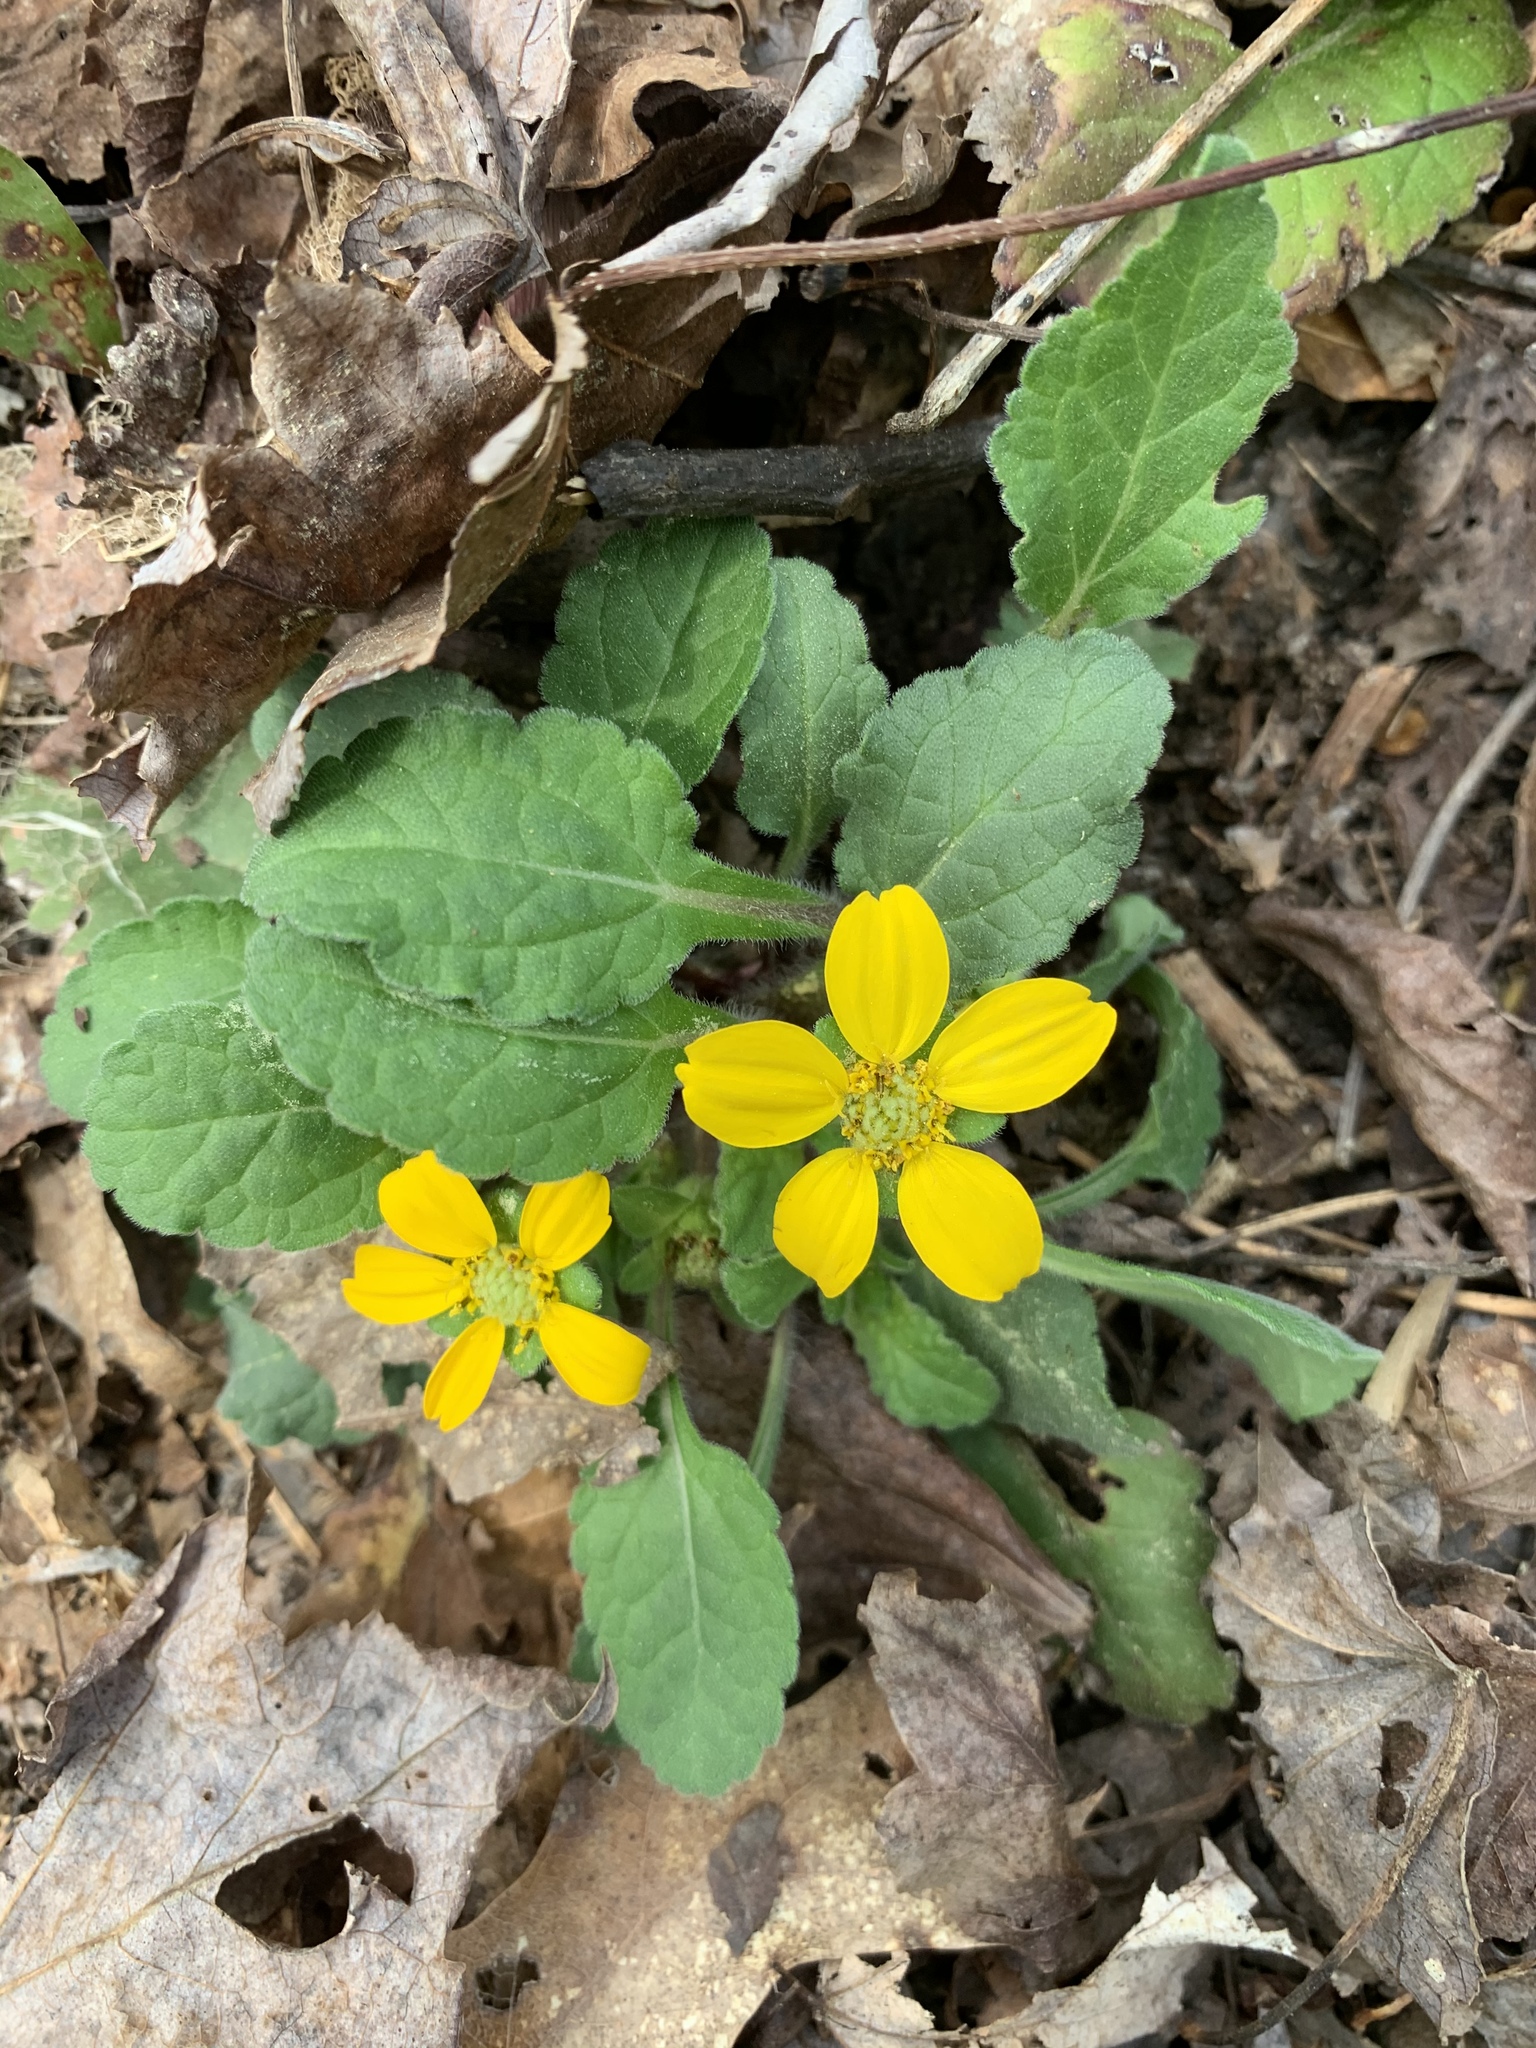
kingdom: Plantae
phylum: Tracheophyta
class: Magnoliopsida
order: Asterales
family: Asteraceae
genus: Chrysogonum
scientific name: Chrysogonum virginianum
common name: Golden-knee
